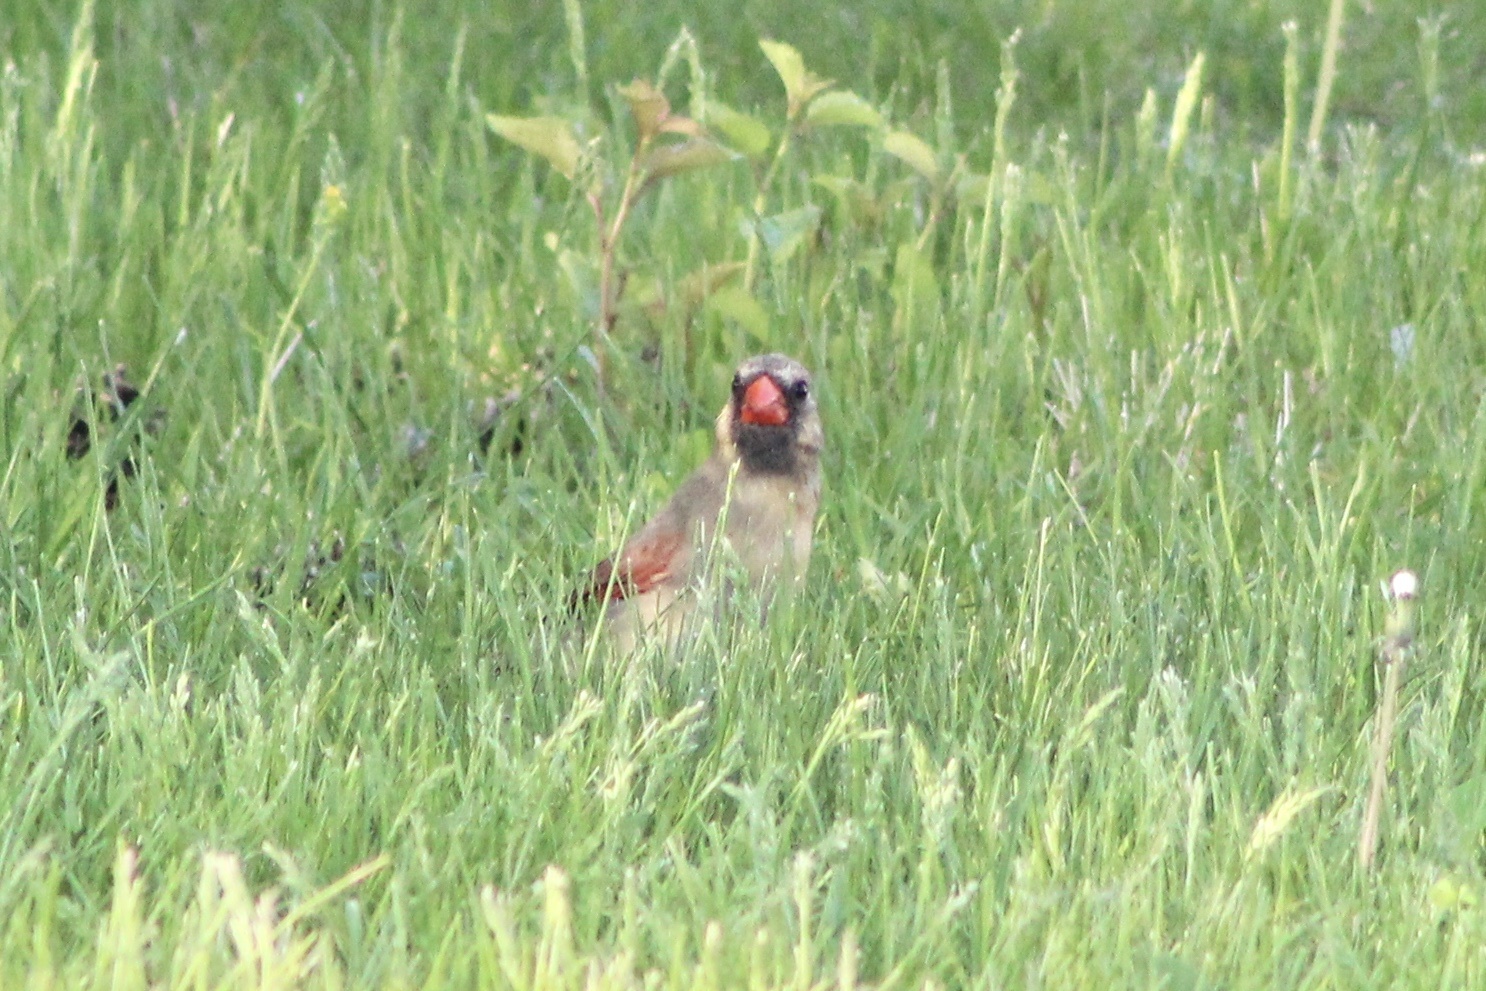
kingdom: Animalia
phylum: Chordata
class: Aves
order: Passeriformes
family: Cardinalidae
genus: Cardinalis
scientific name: Cardinalis cardinalis
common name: Northern cardinal
